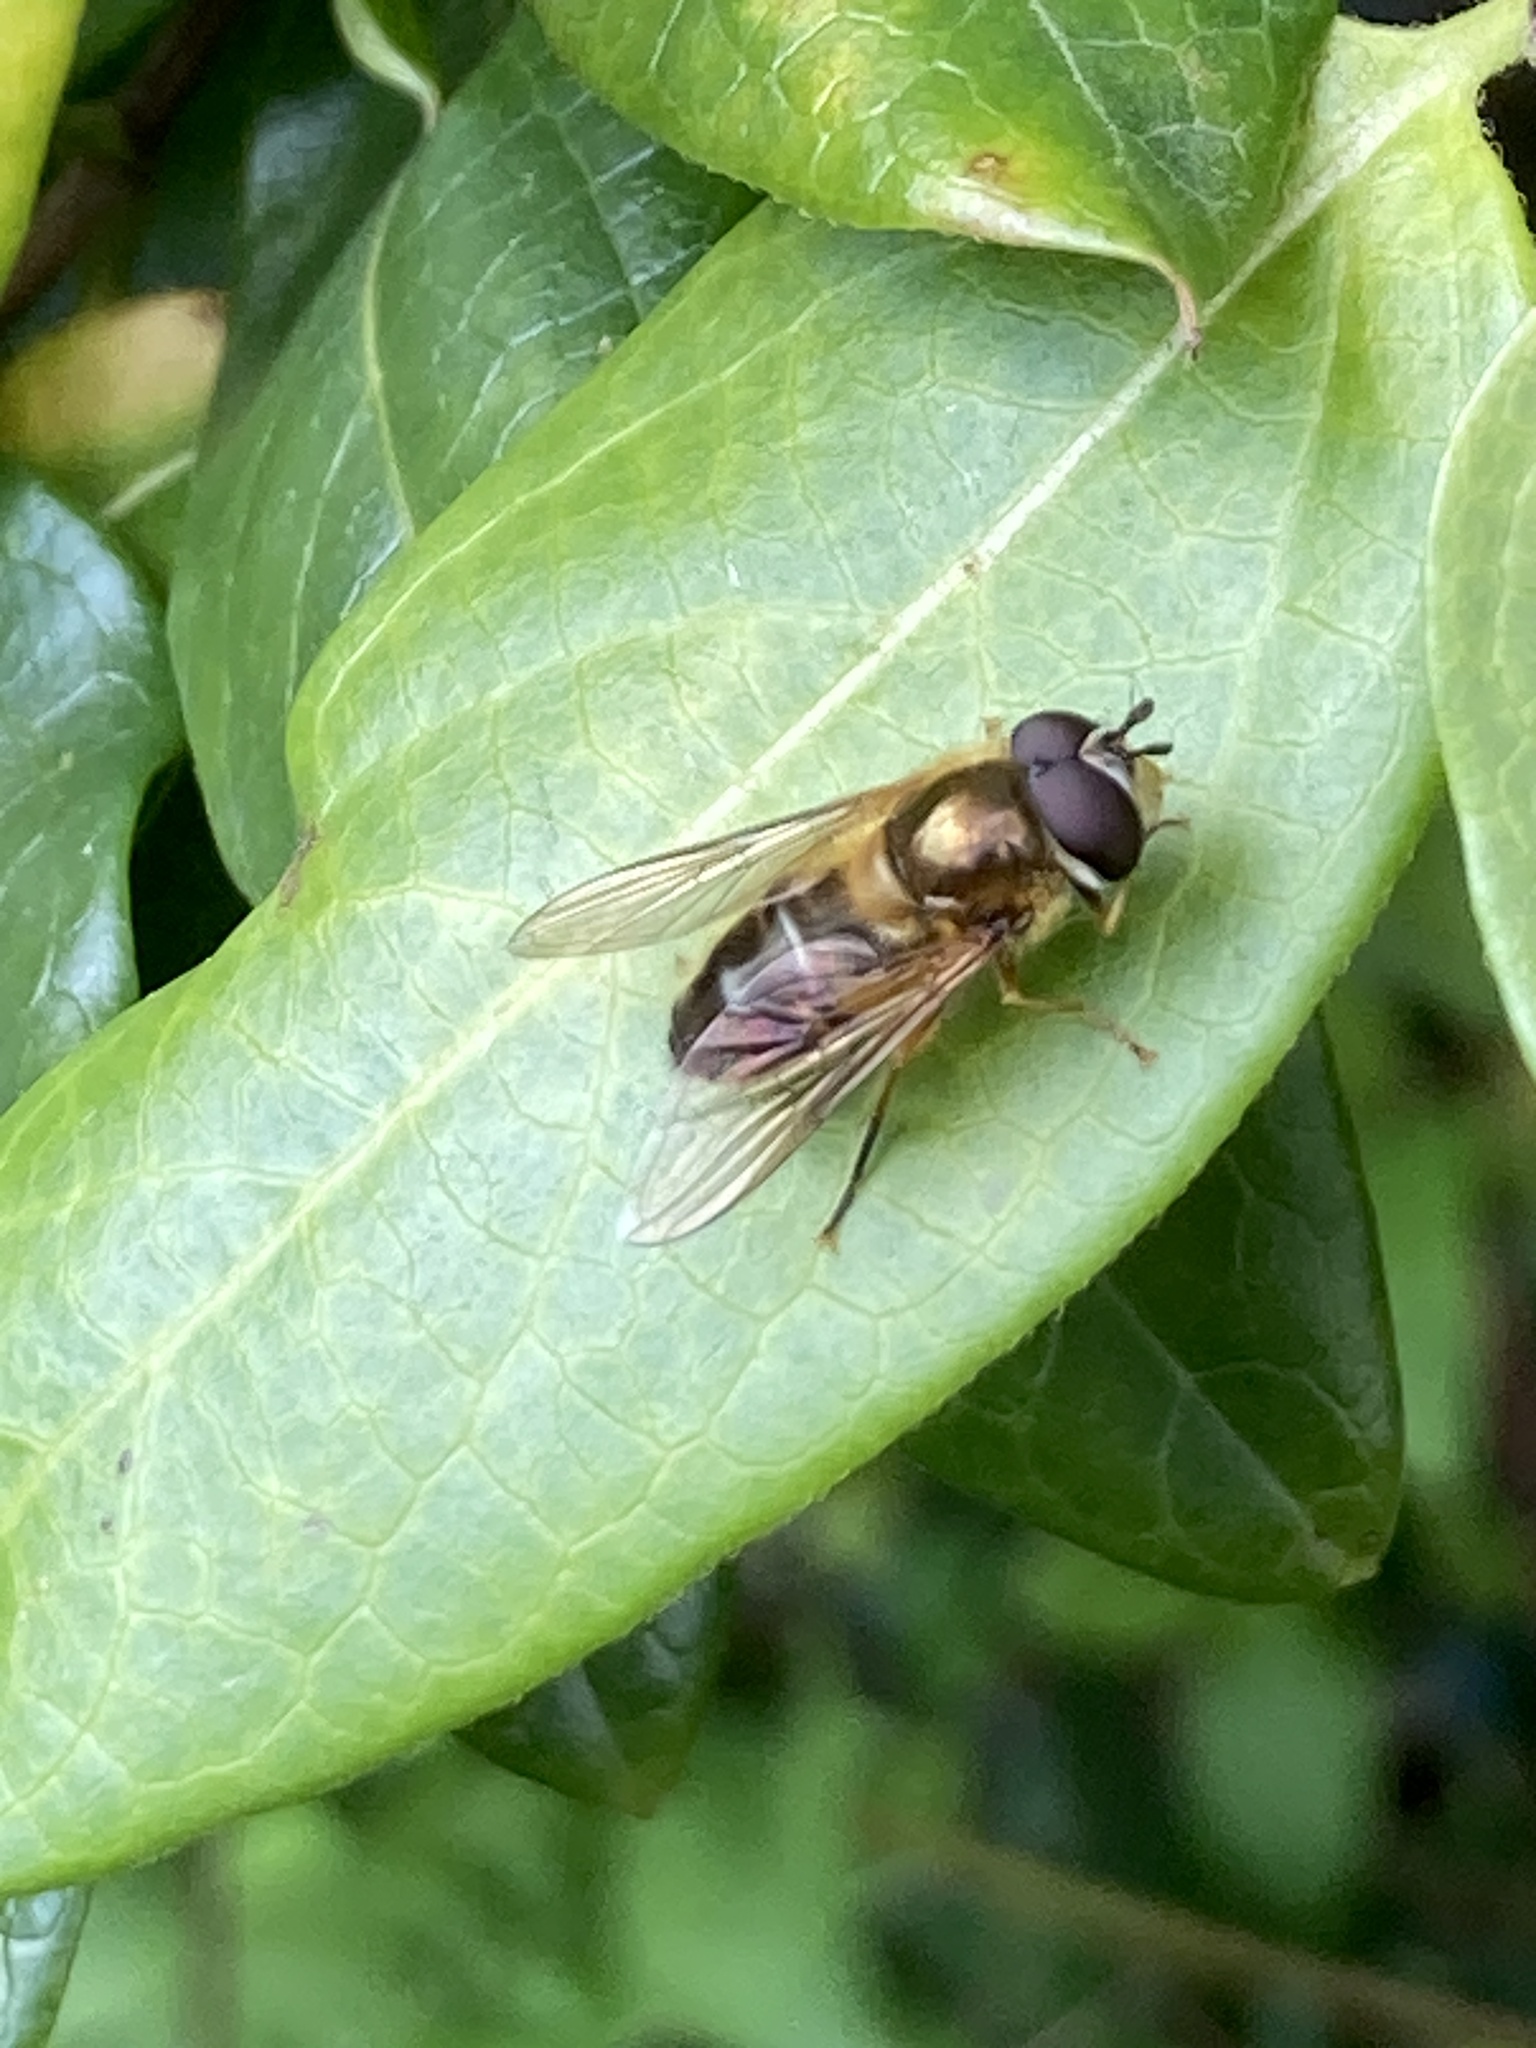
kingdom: Animalia
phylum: Arthropoda
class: Insecta
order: Diptera
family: Syrphidae
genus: Epistrophe
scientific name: Epistrophe eligans
